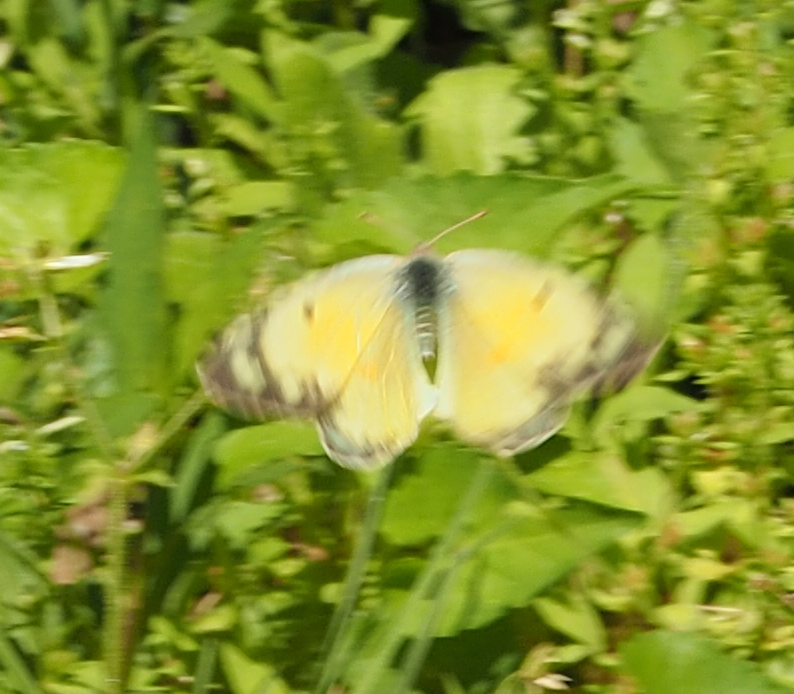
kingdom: Animalia
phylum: Arthropoda
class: Insecta
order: Lepidoptera
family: Pieridae
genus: Colias
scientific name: Colias eurytheme
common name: Alfalfa butterfly
